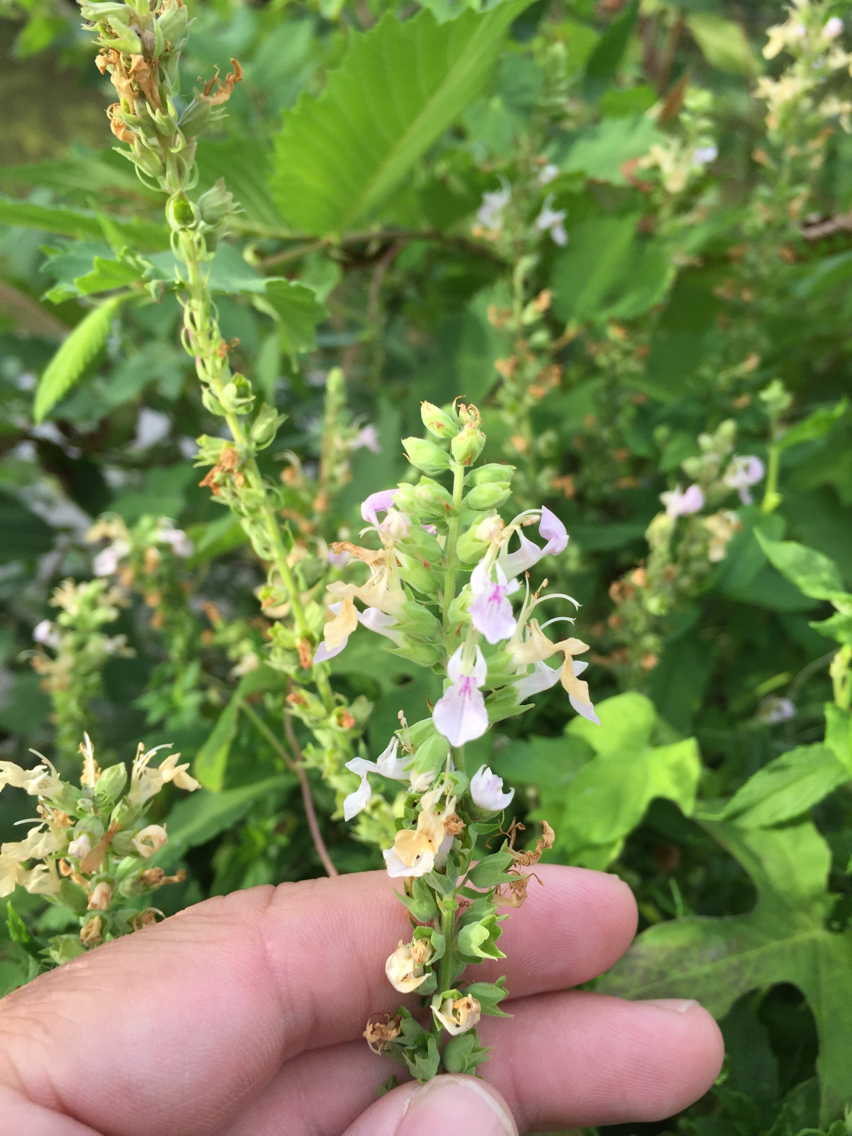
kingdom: Plantae
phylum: Tracheophyta
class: Magnoliopsida
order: Lamiales
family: Lamiaceae
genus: Teucrium
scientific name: Teucrium canadense
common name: American germander
